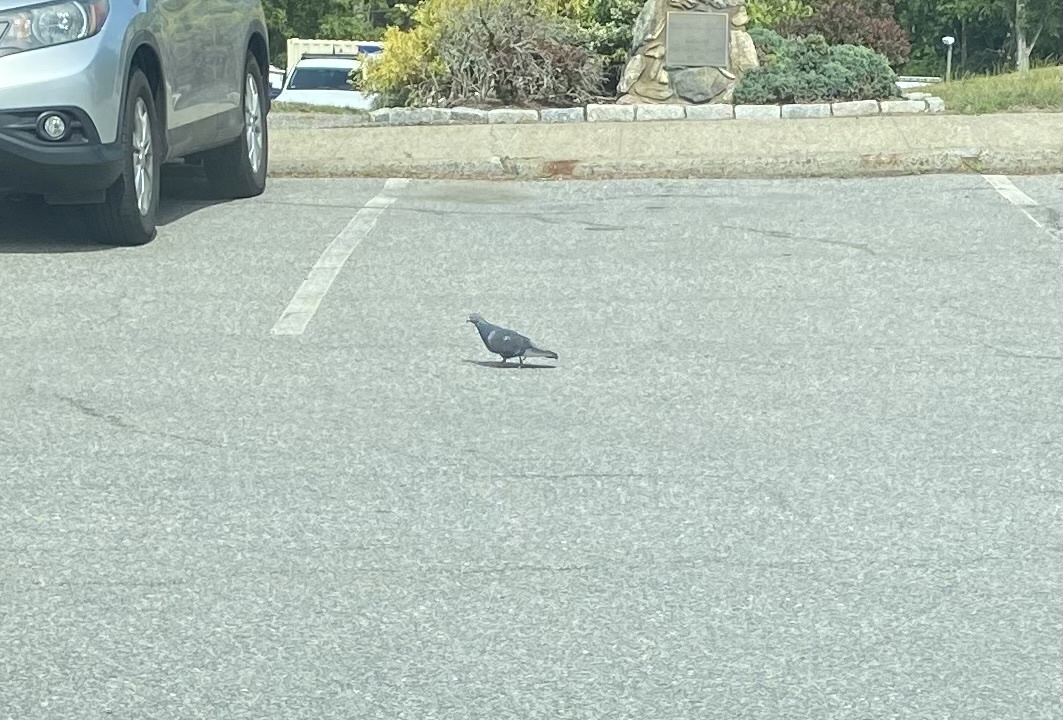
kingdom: Animalia
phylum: Chordata
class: Aves
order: Columbiformes
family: Columbidae
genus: Columba
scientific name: Columba livia
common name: Rock pigeon
